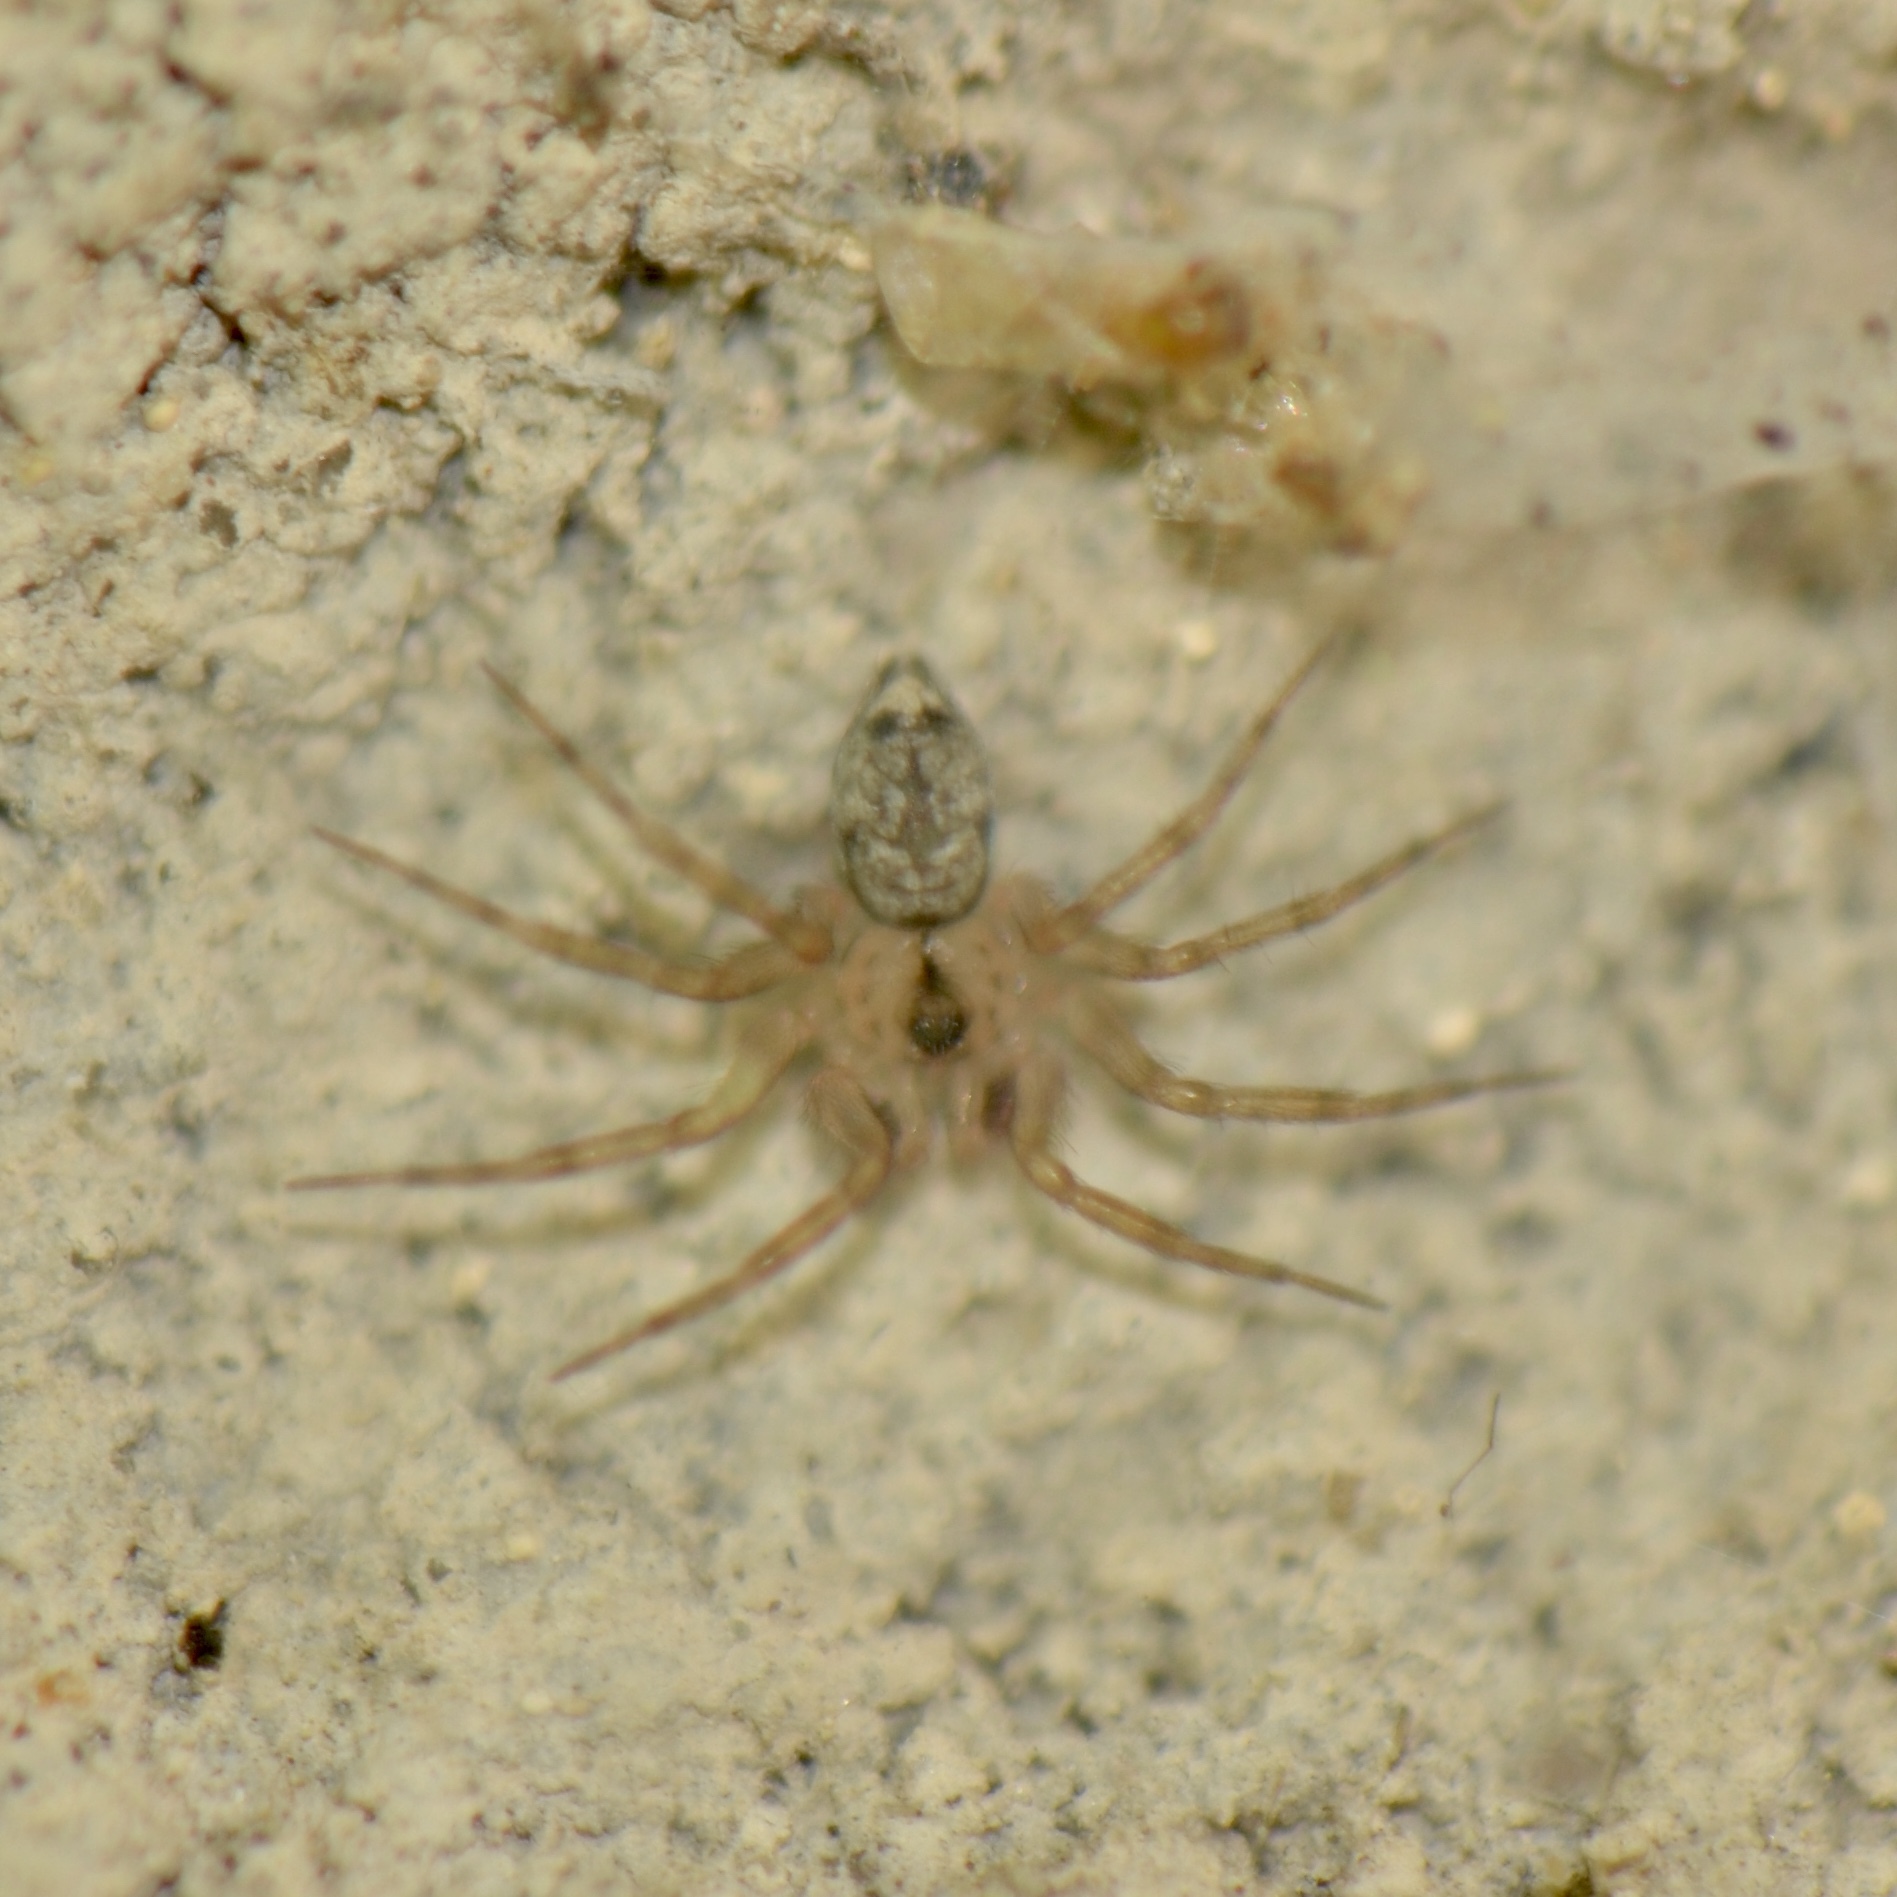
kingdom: Animalia
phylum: Arthropoda
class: Arachnida
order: Araneae
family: Oecobiidae
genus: Oecobius
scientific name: Oecobius navus
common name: Flatmesh weaver
